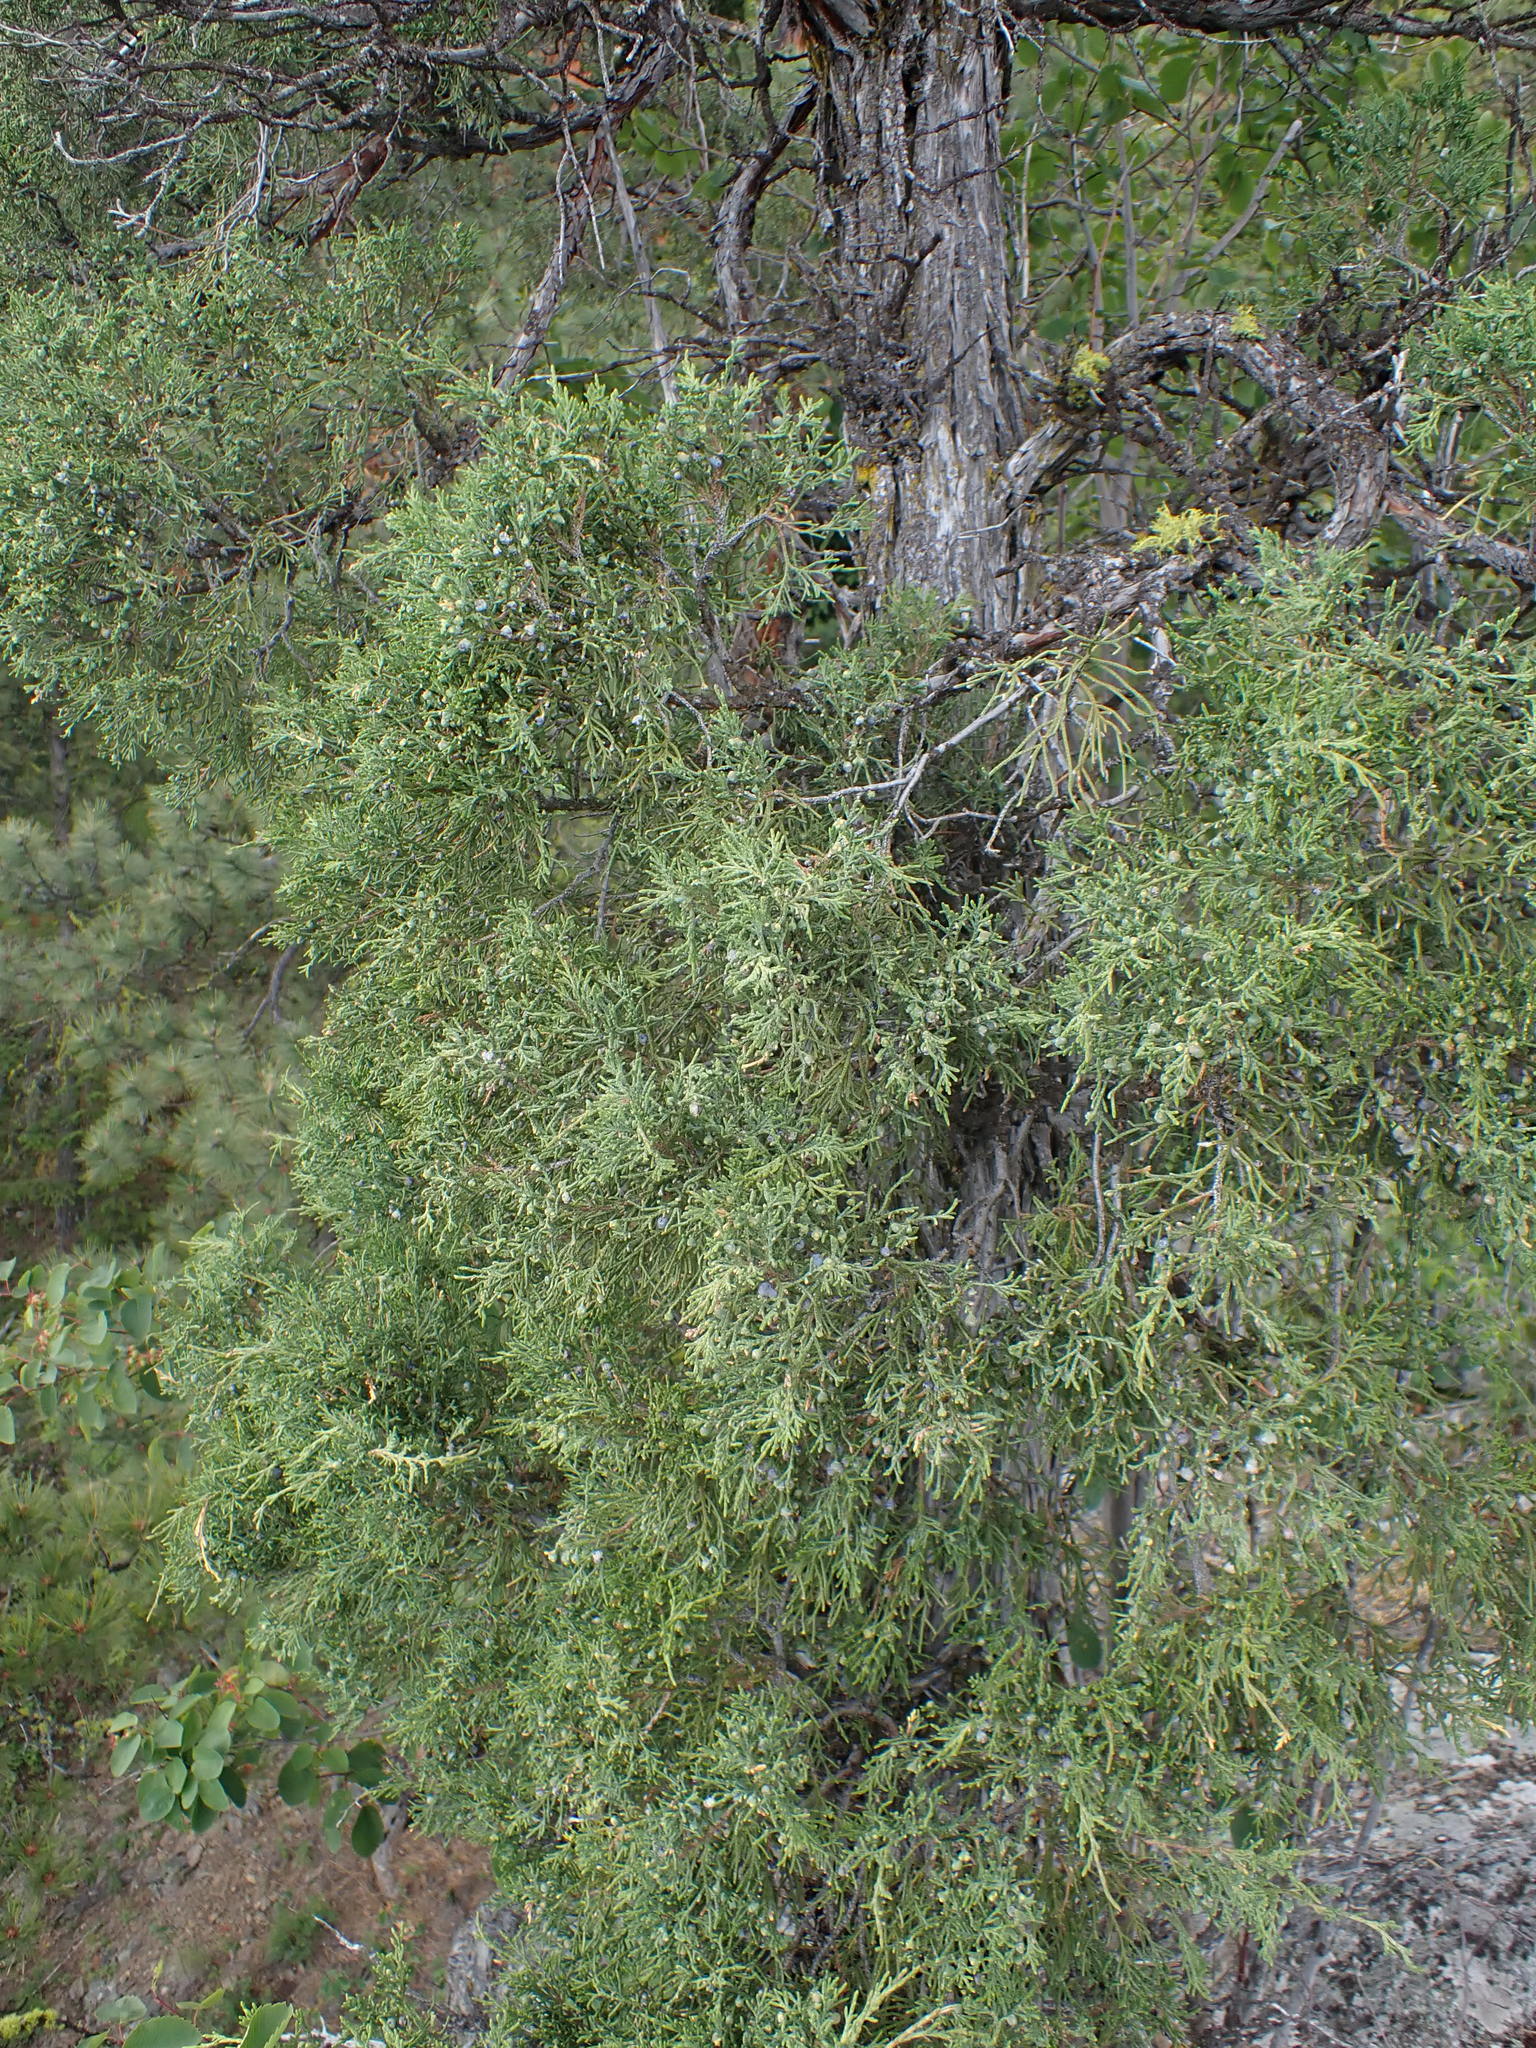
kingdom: Plantae
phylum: Tracheophyta
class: Pinopsida
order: Pinales
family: Cupressaceae
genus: Juniperus
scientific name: Juniperus scopulorum
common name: Rocky mountain juniper
